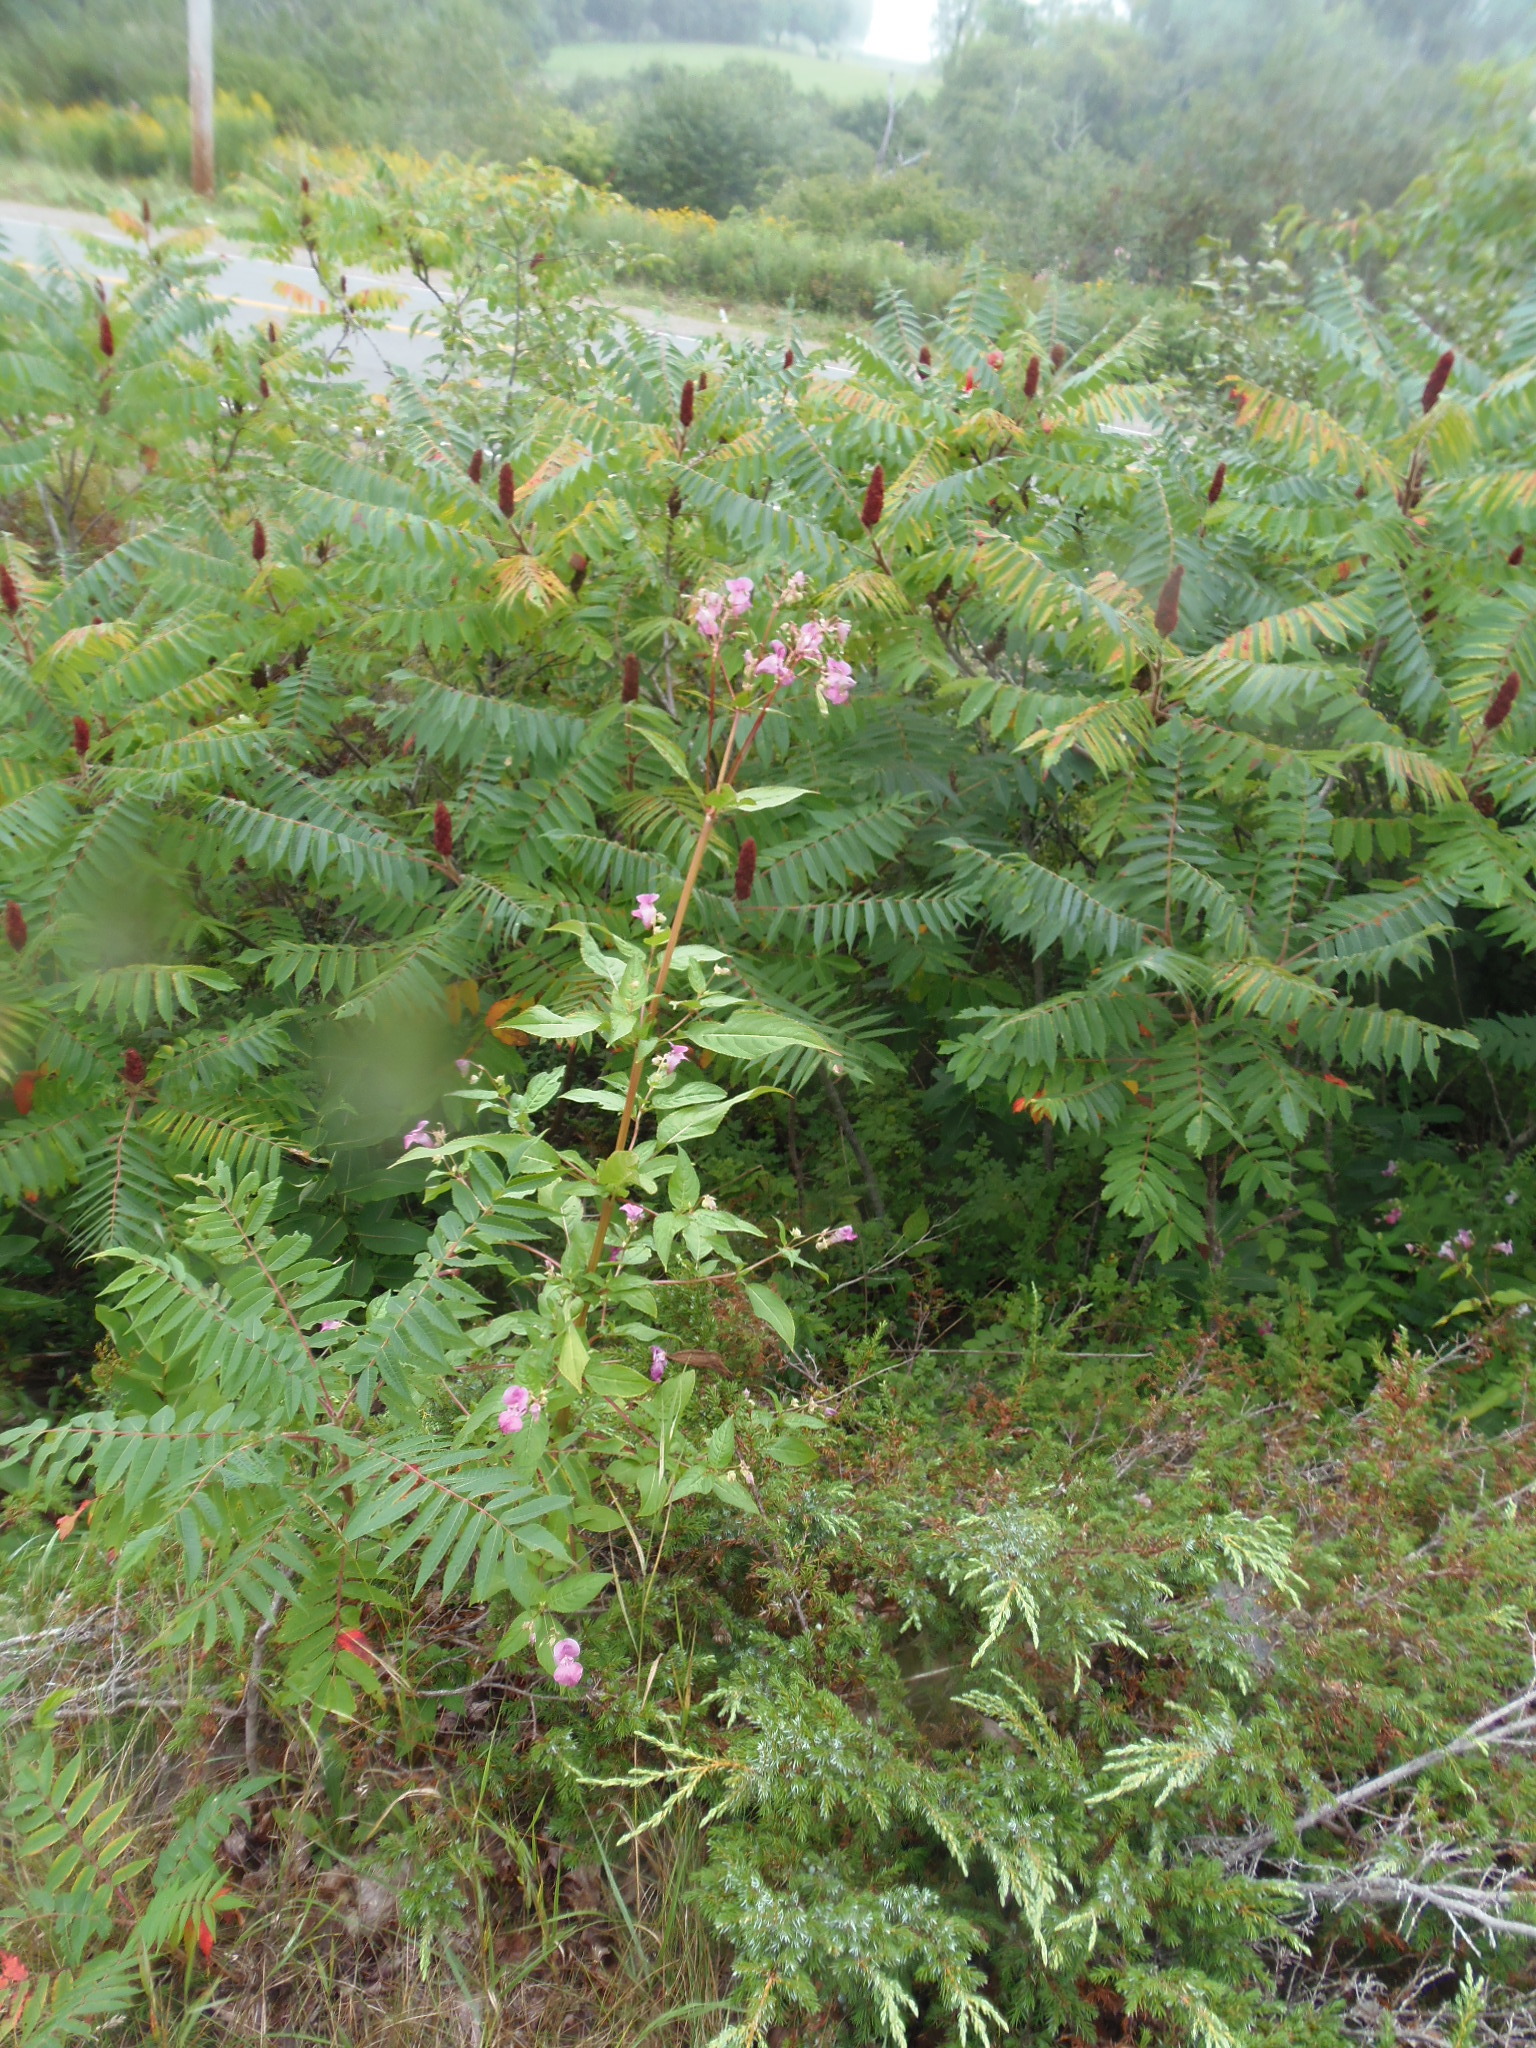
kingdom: Plantae
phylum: Tracheophyta
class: Magnoliopsida
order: Ericales
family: Balsaminaceae
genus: Impatiens
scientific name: Impatiens glandulifera
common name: Himalayan balsam
